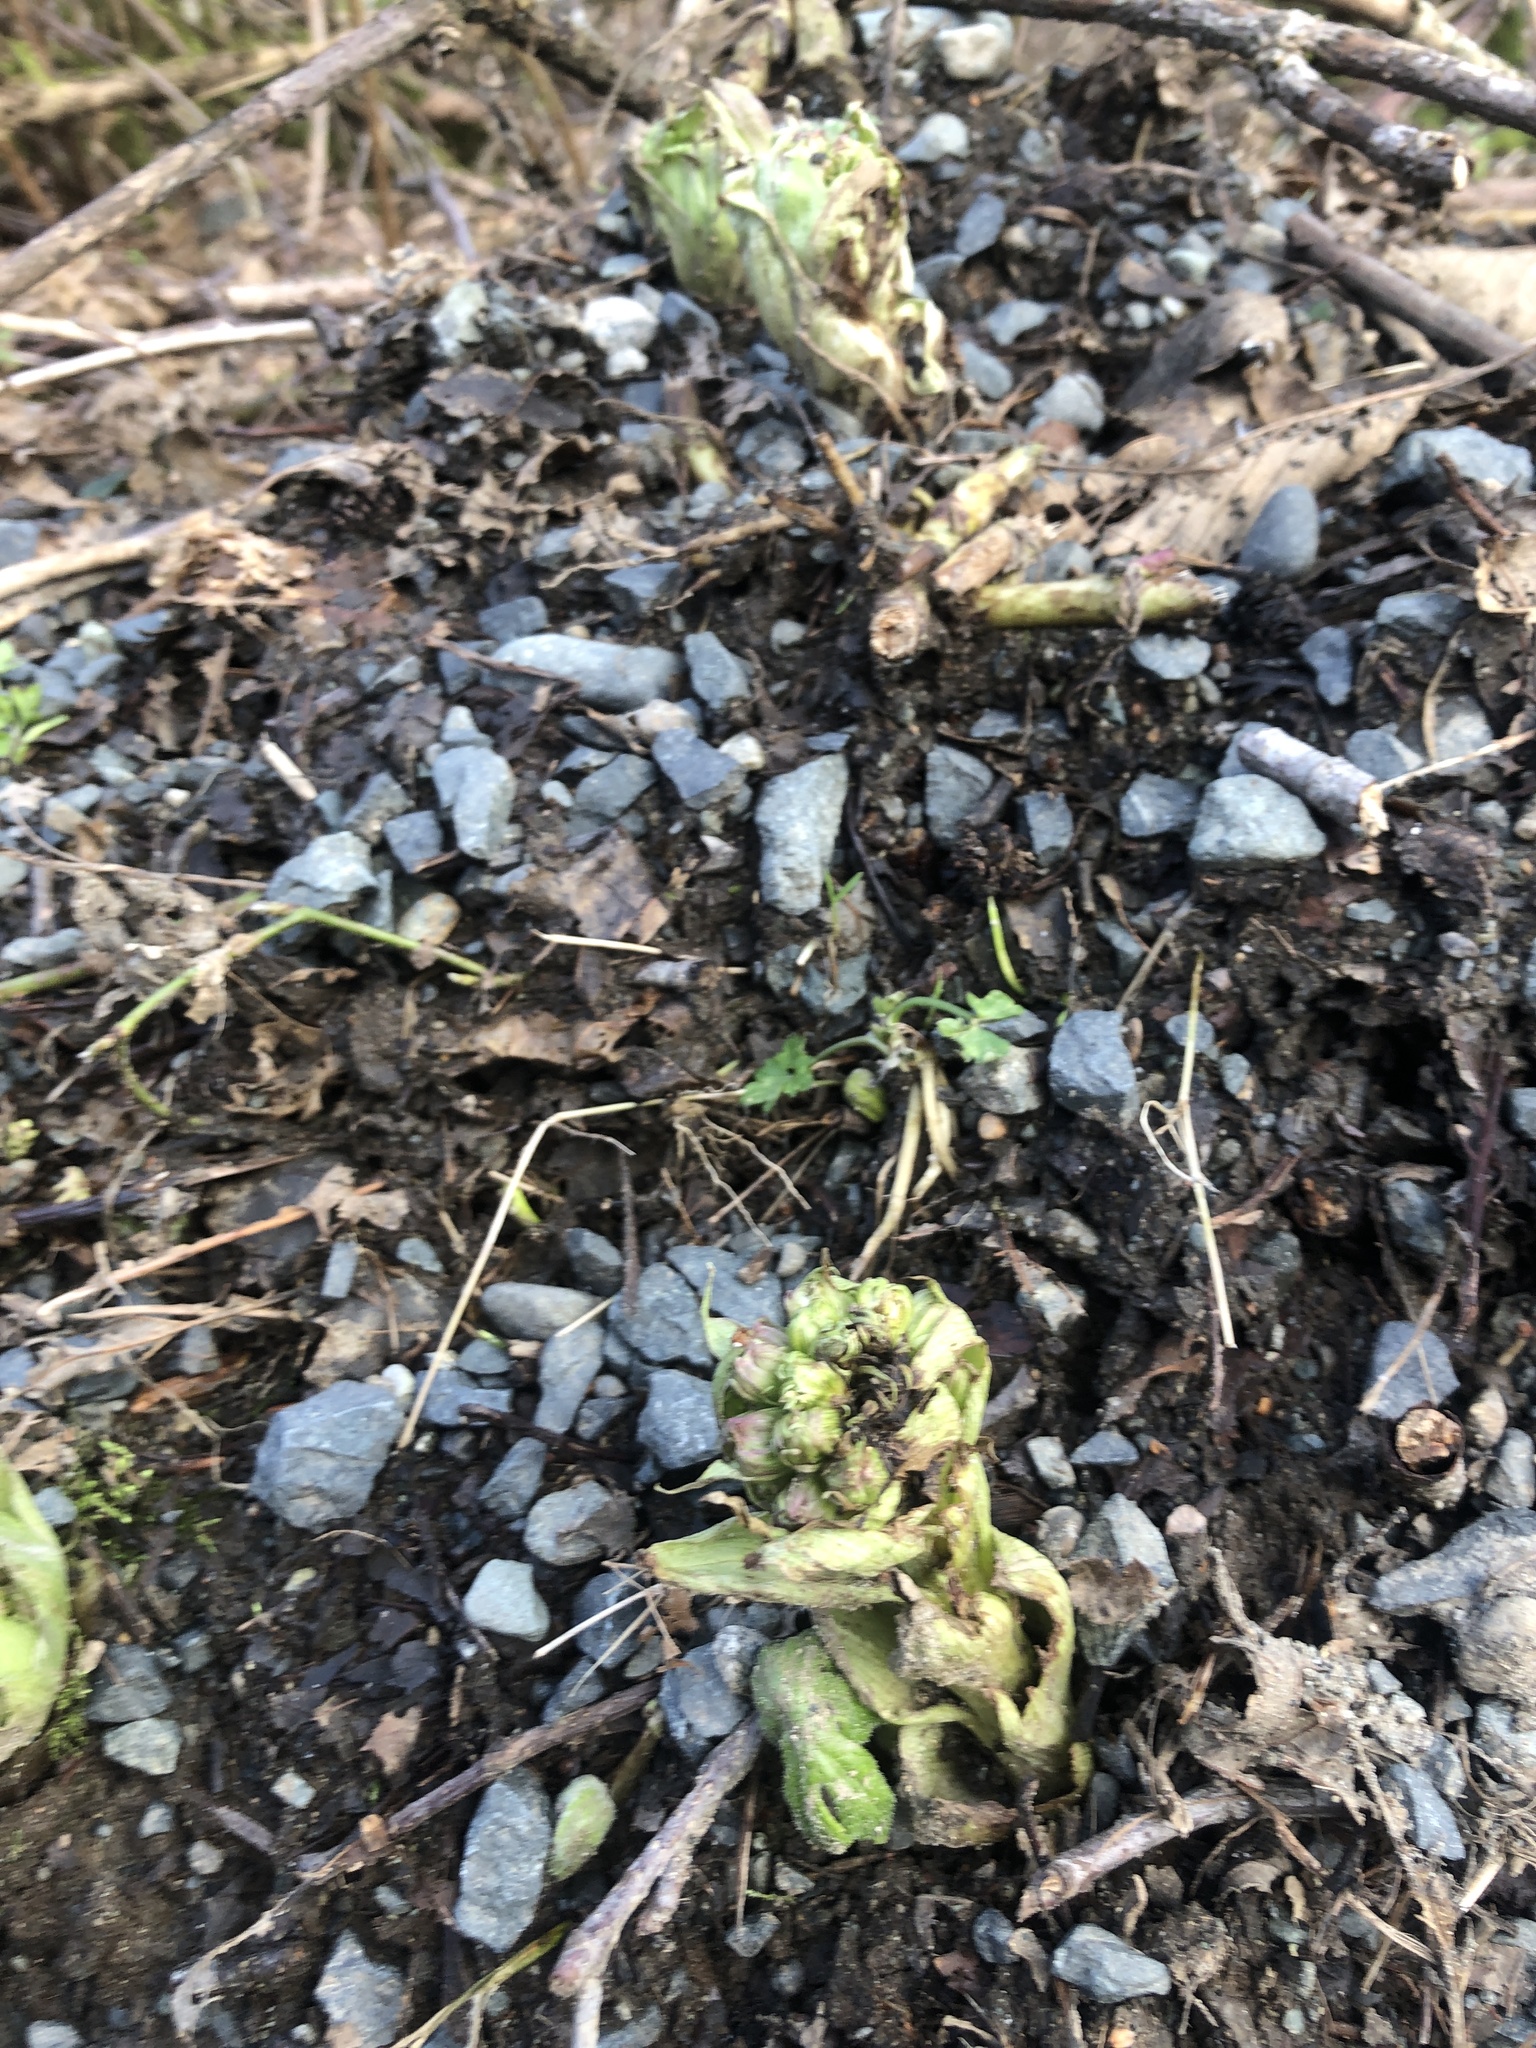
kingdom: Plantae
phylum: Tracheophyta
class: Magnoliopsida
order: Asterales
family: Asteraceae
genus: Petasites
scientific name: Petasites frigidus
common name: Arctic butterbur
